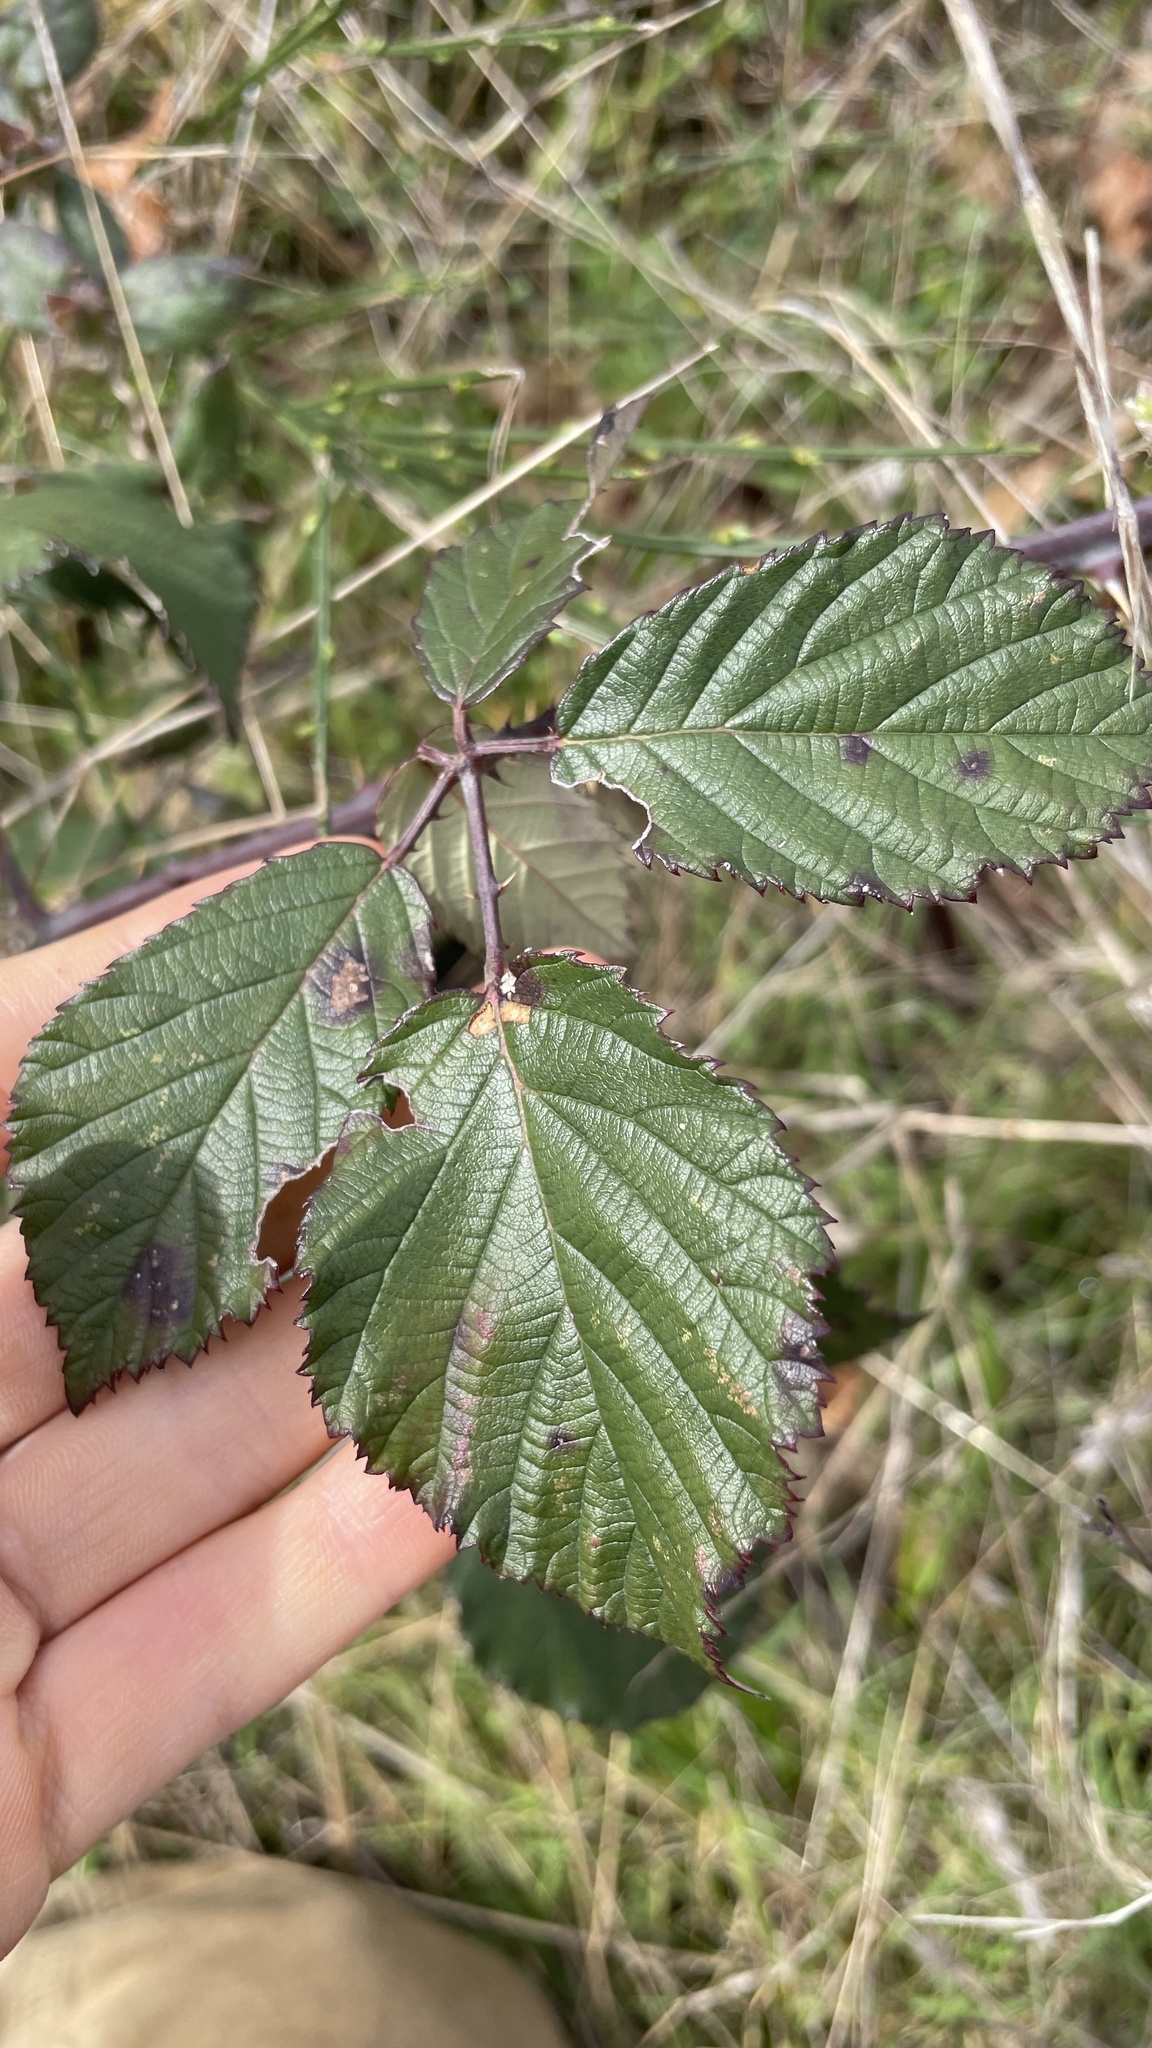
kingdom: Plantae
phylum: Tracheophyta
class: Magnoliopsida
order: Rosales
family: Rosaceae
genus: Rubus
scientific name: Rubus bifrons
